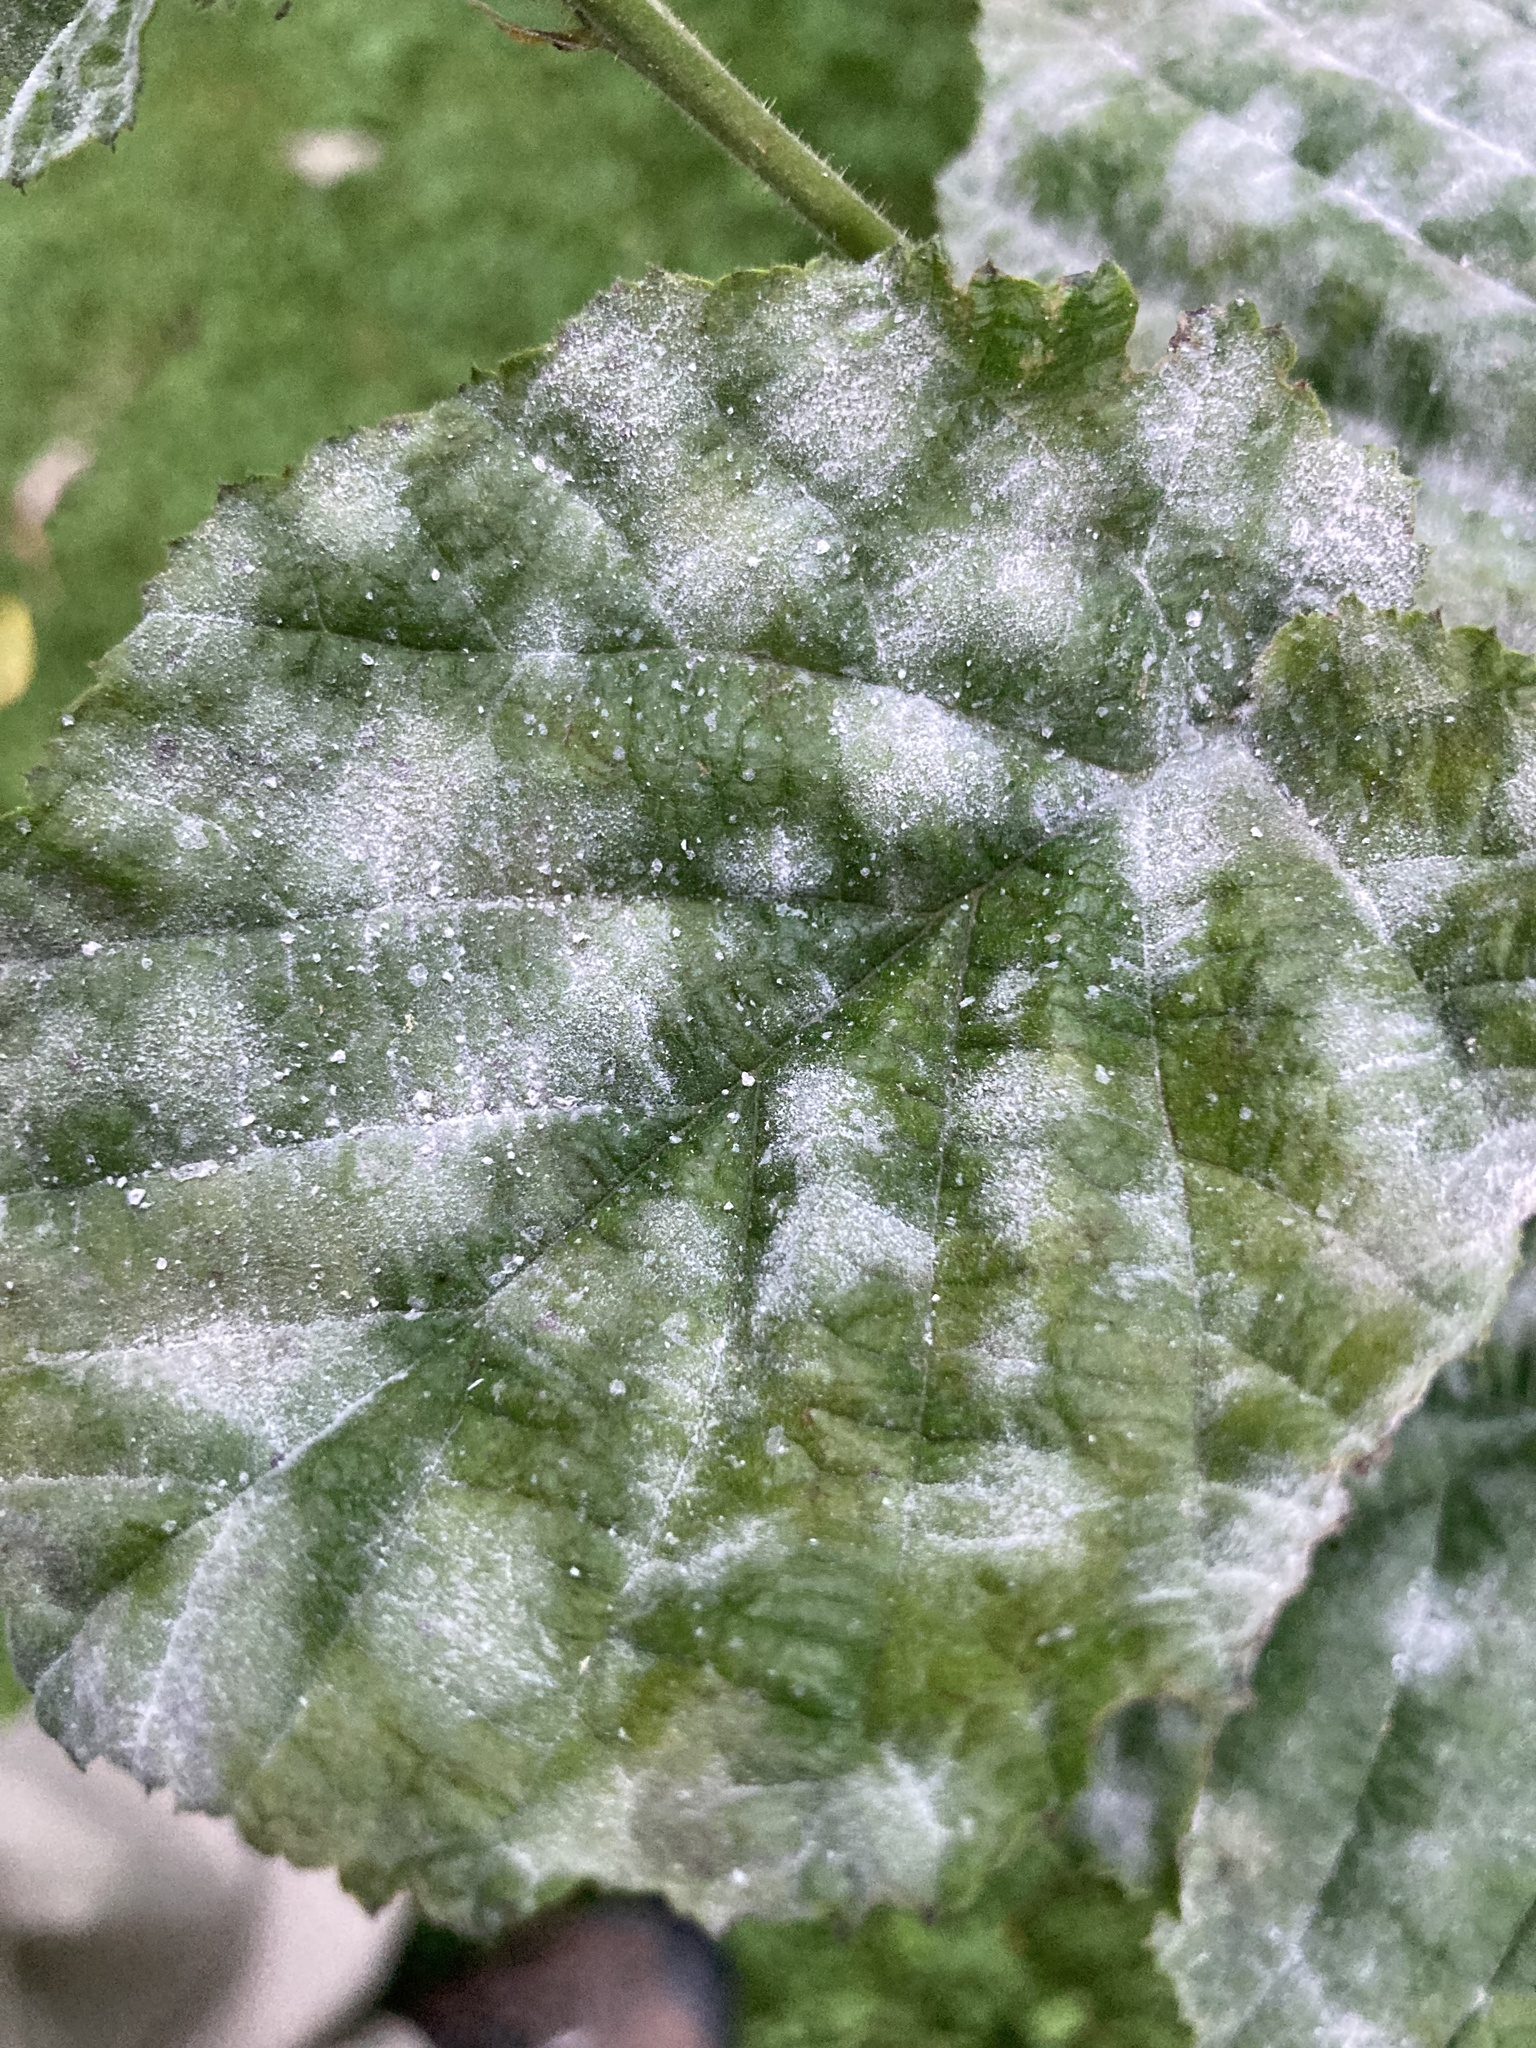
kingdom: Fungi
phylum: Ascomycota
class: Leotiomycetes
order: Helotiales
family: Erysiphaceae
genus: Erysiphe
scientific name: Erysiphe corylacearum
